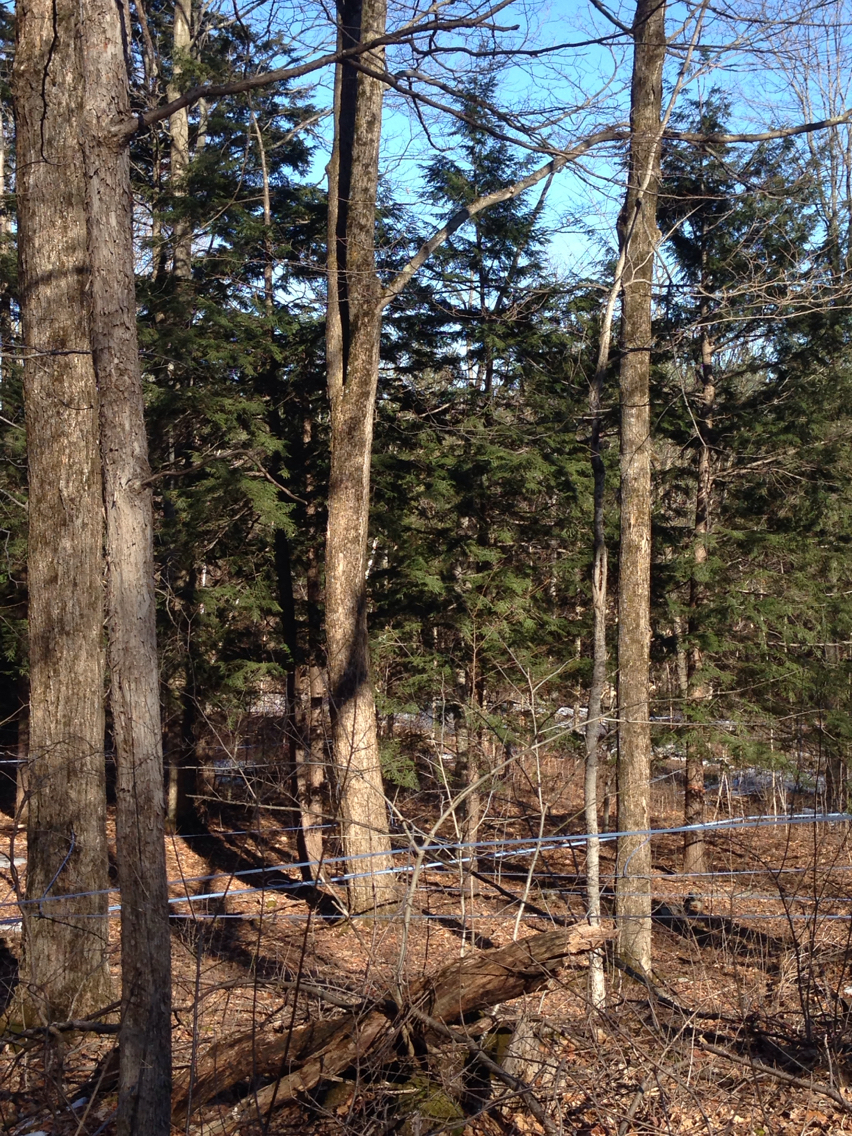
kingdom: Plantae
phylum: Tracheophyta
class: Pinopsida
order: Pinales
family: Pinaceae
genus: Tsuga
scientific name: Tsuga canadensis
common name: Eastern hemlock
